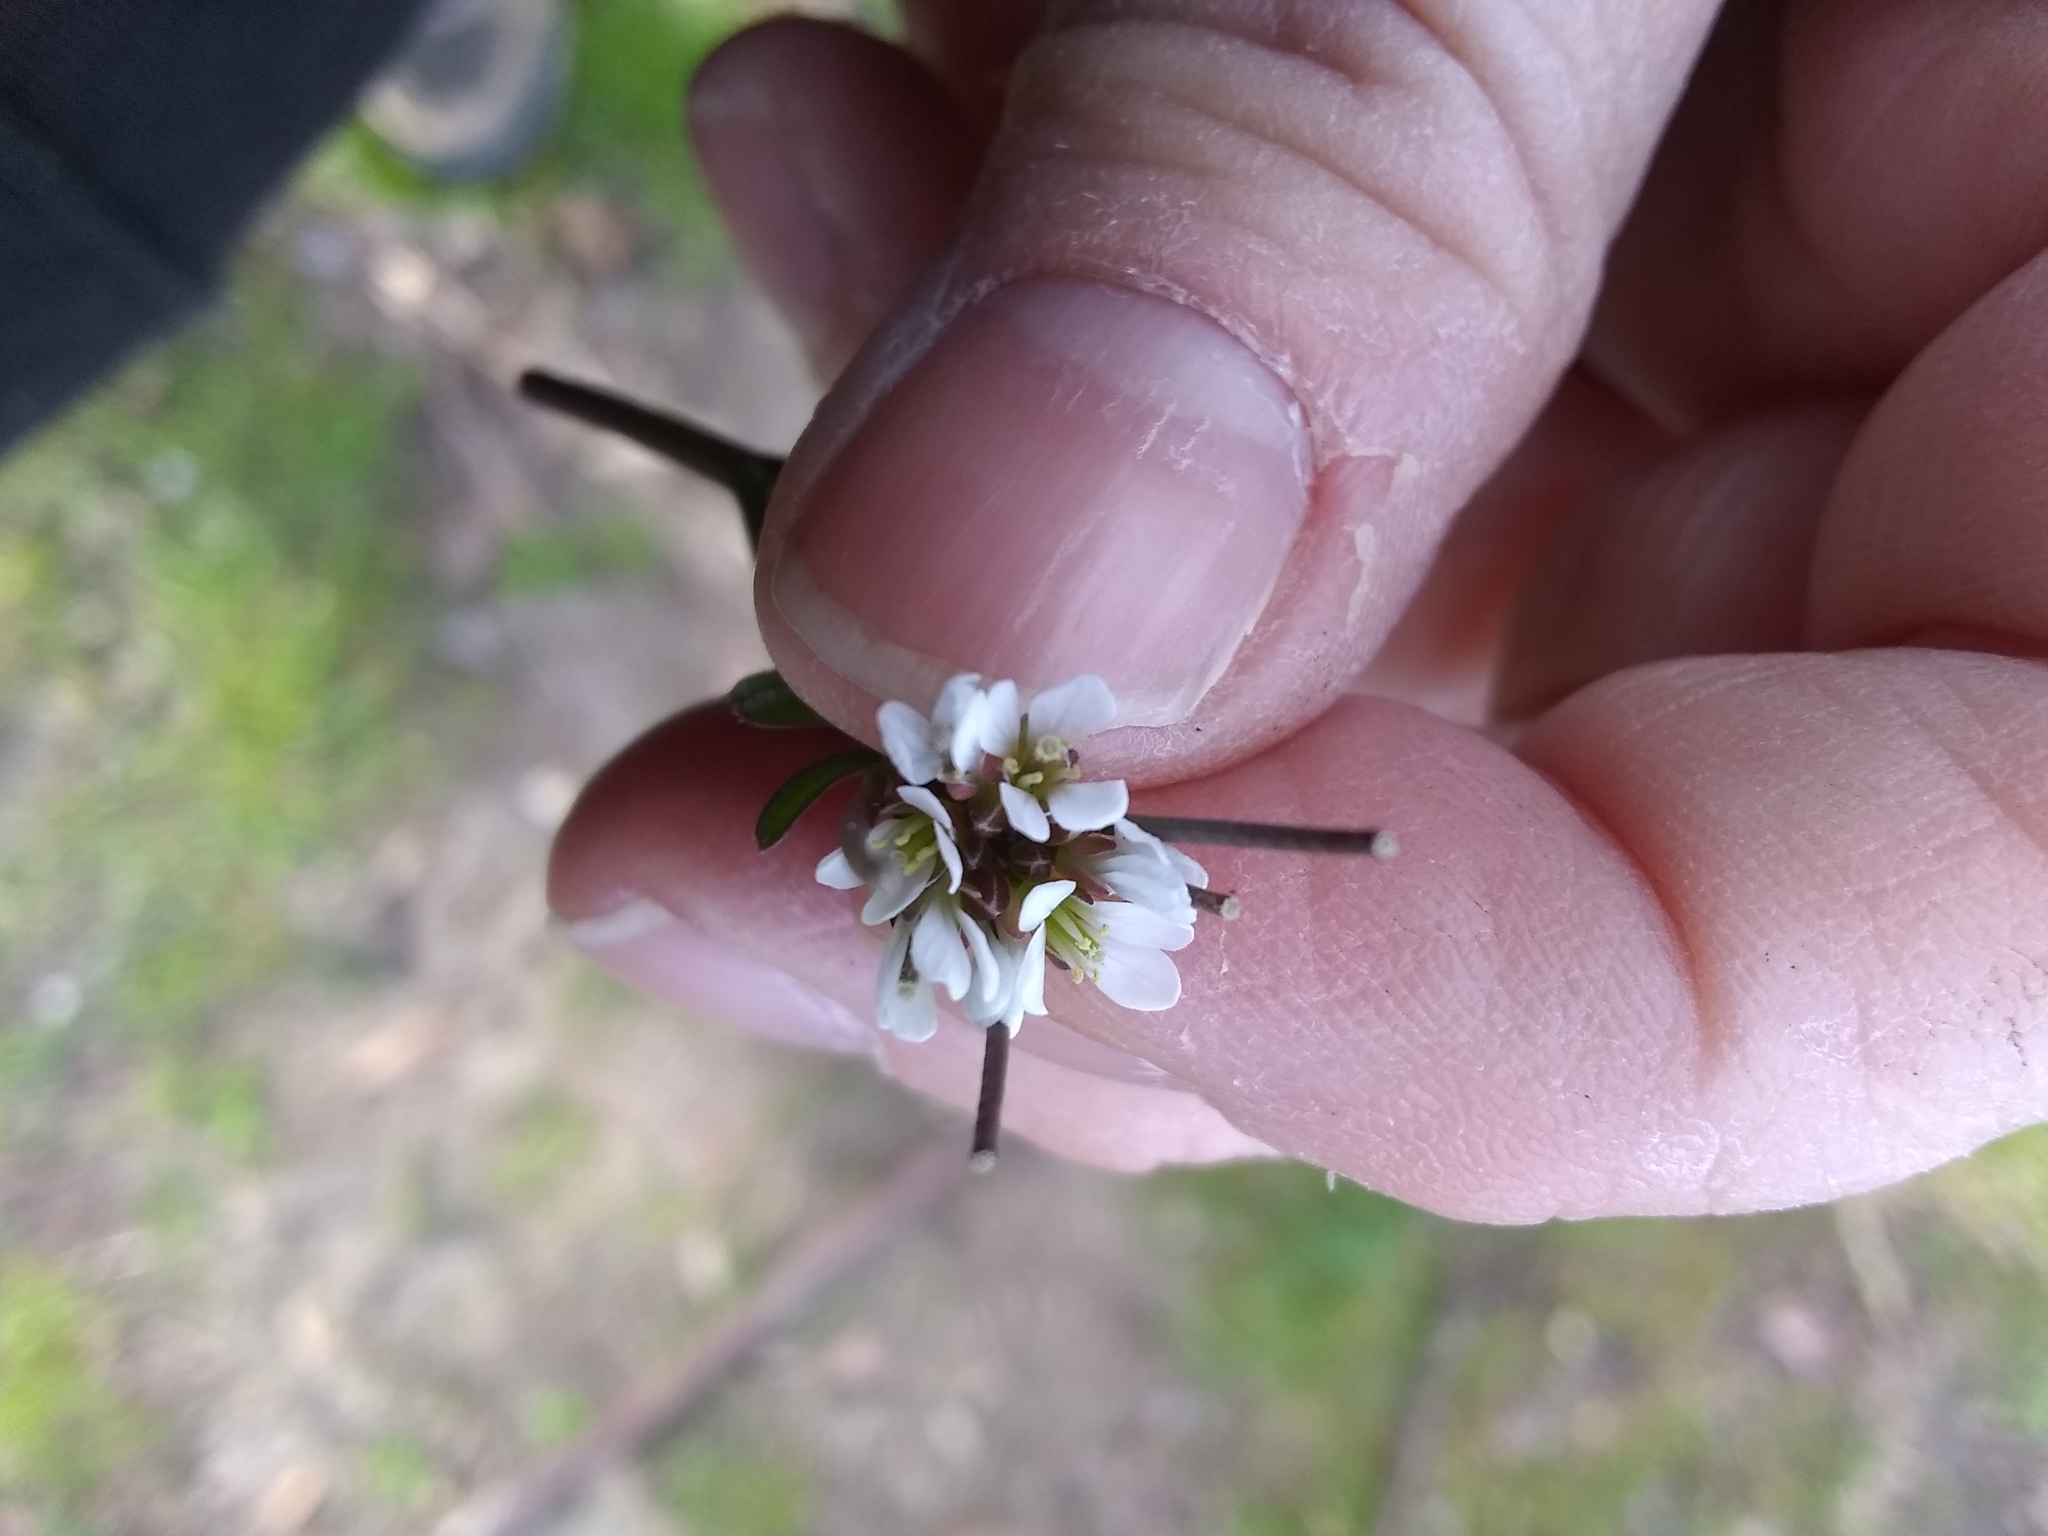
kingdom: Plantae
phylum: Tracheophyta
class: Magnoliopsida
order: Brassicales
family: Brassicaceae
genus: Cardamine
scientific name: Cardamine hirsuta
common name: Hairy bittercress
